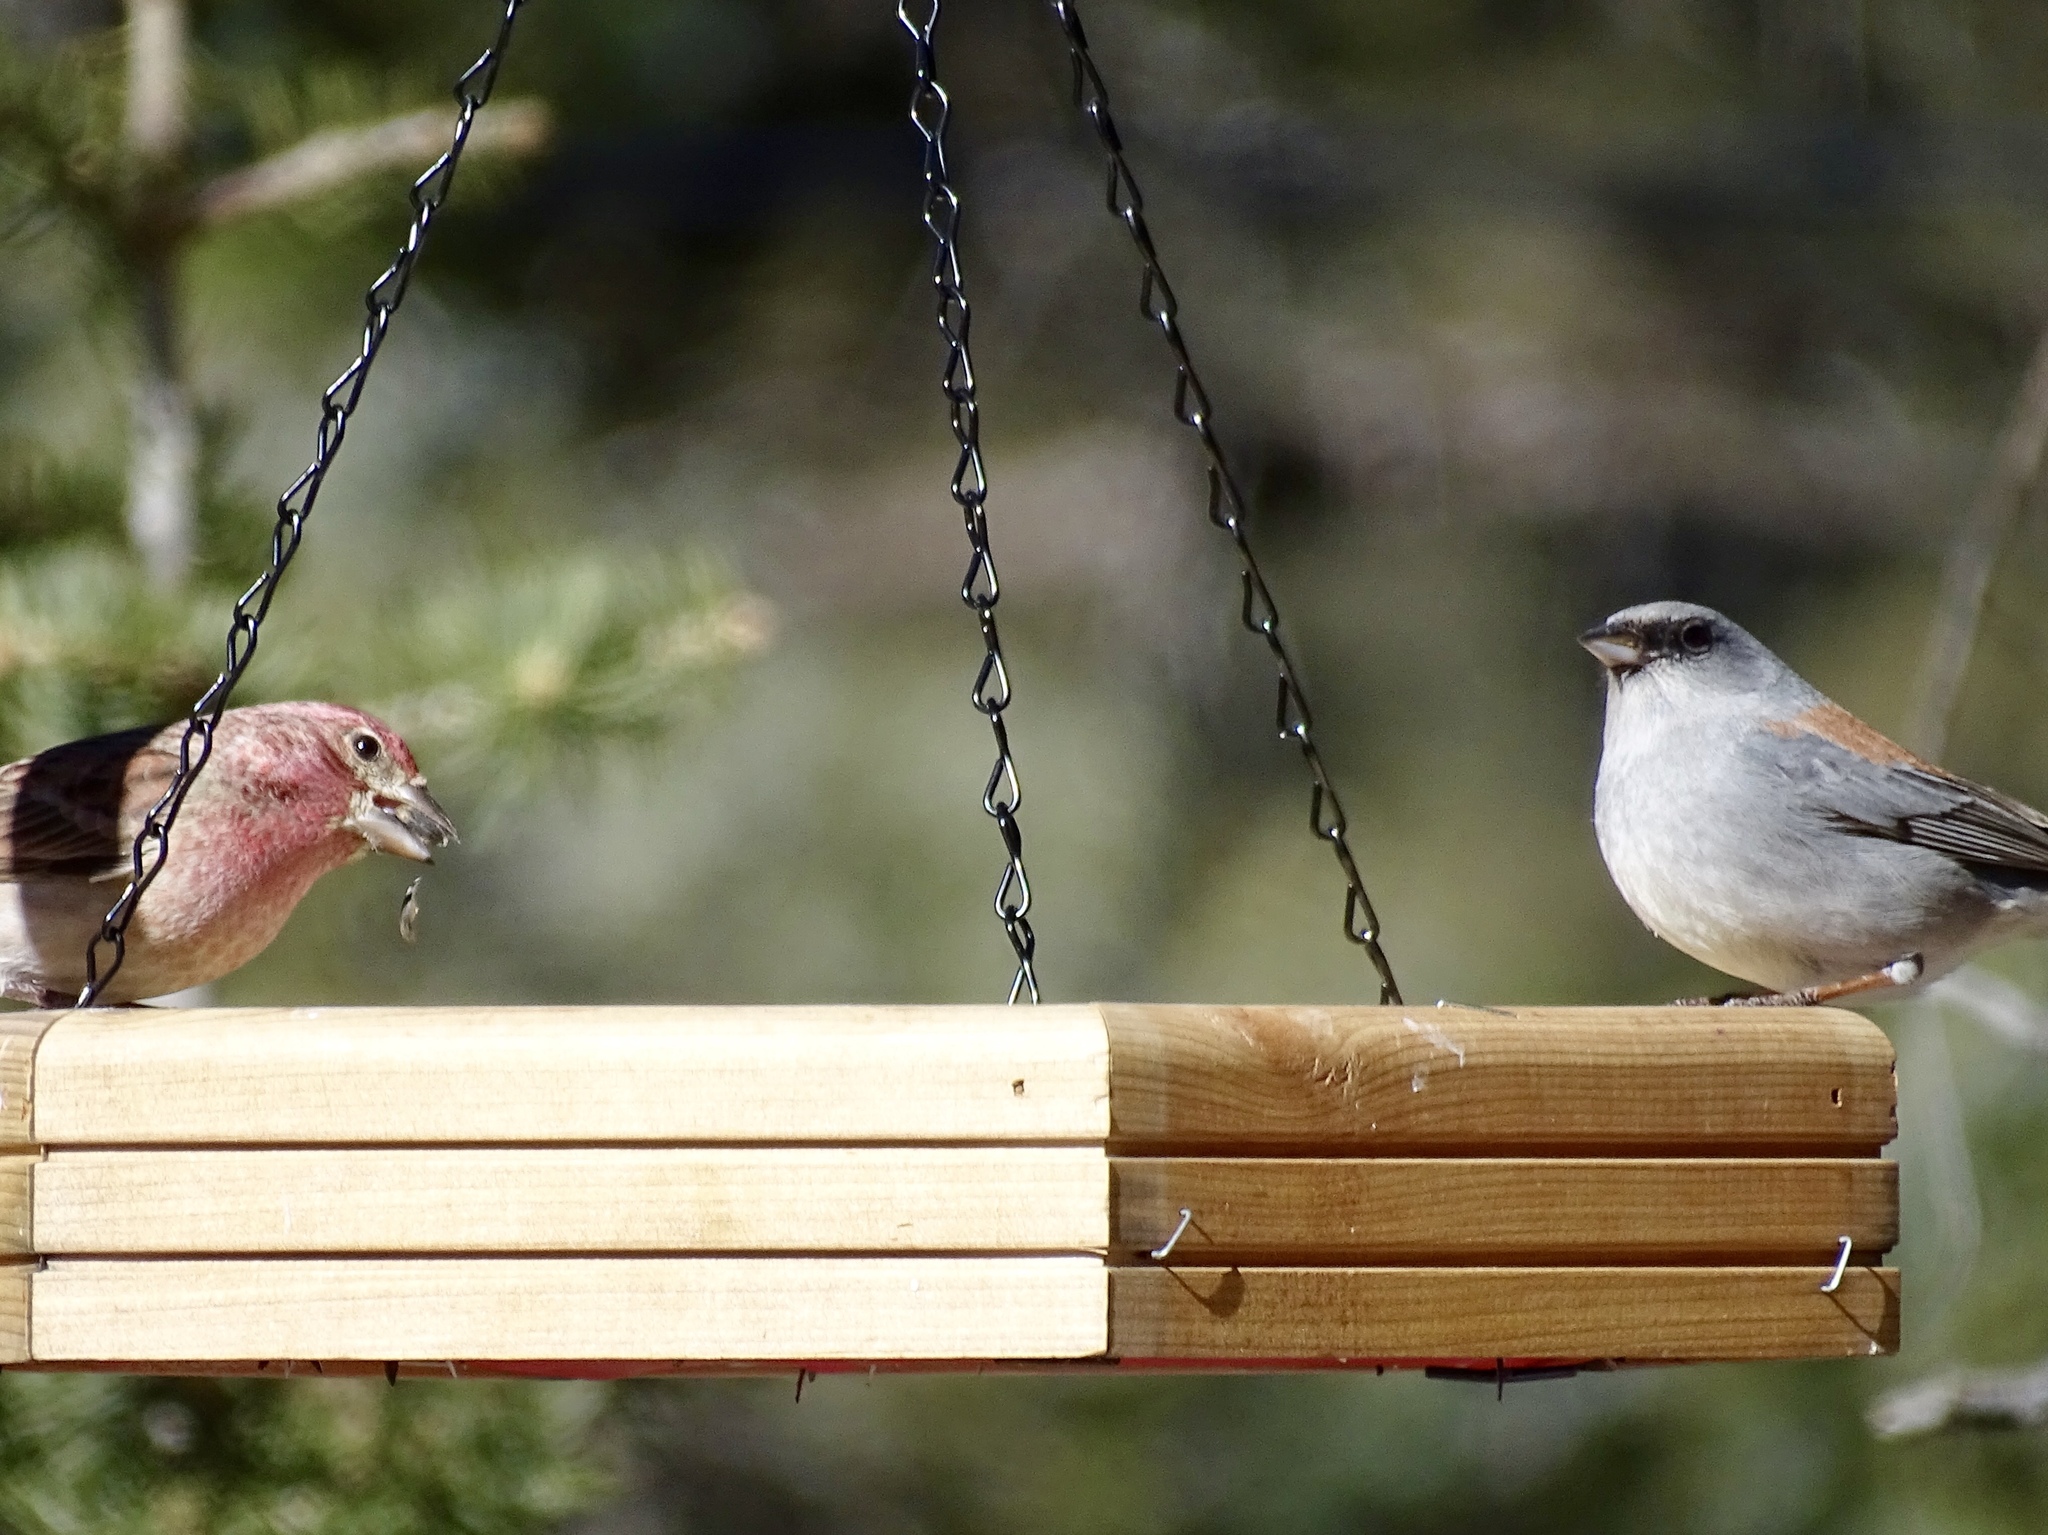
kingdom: Animalia
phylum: Chordata
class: Aves
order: Passeriformes
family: Passerellidae
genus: Junco
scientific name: Junco hyemalis
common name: Dark-eyed junco
